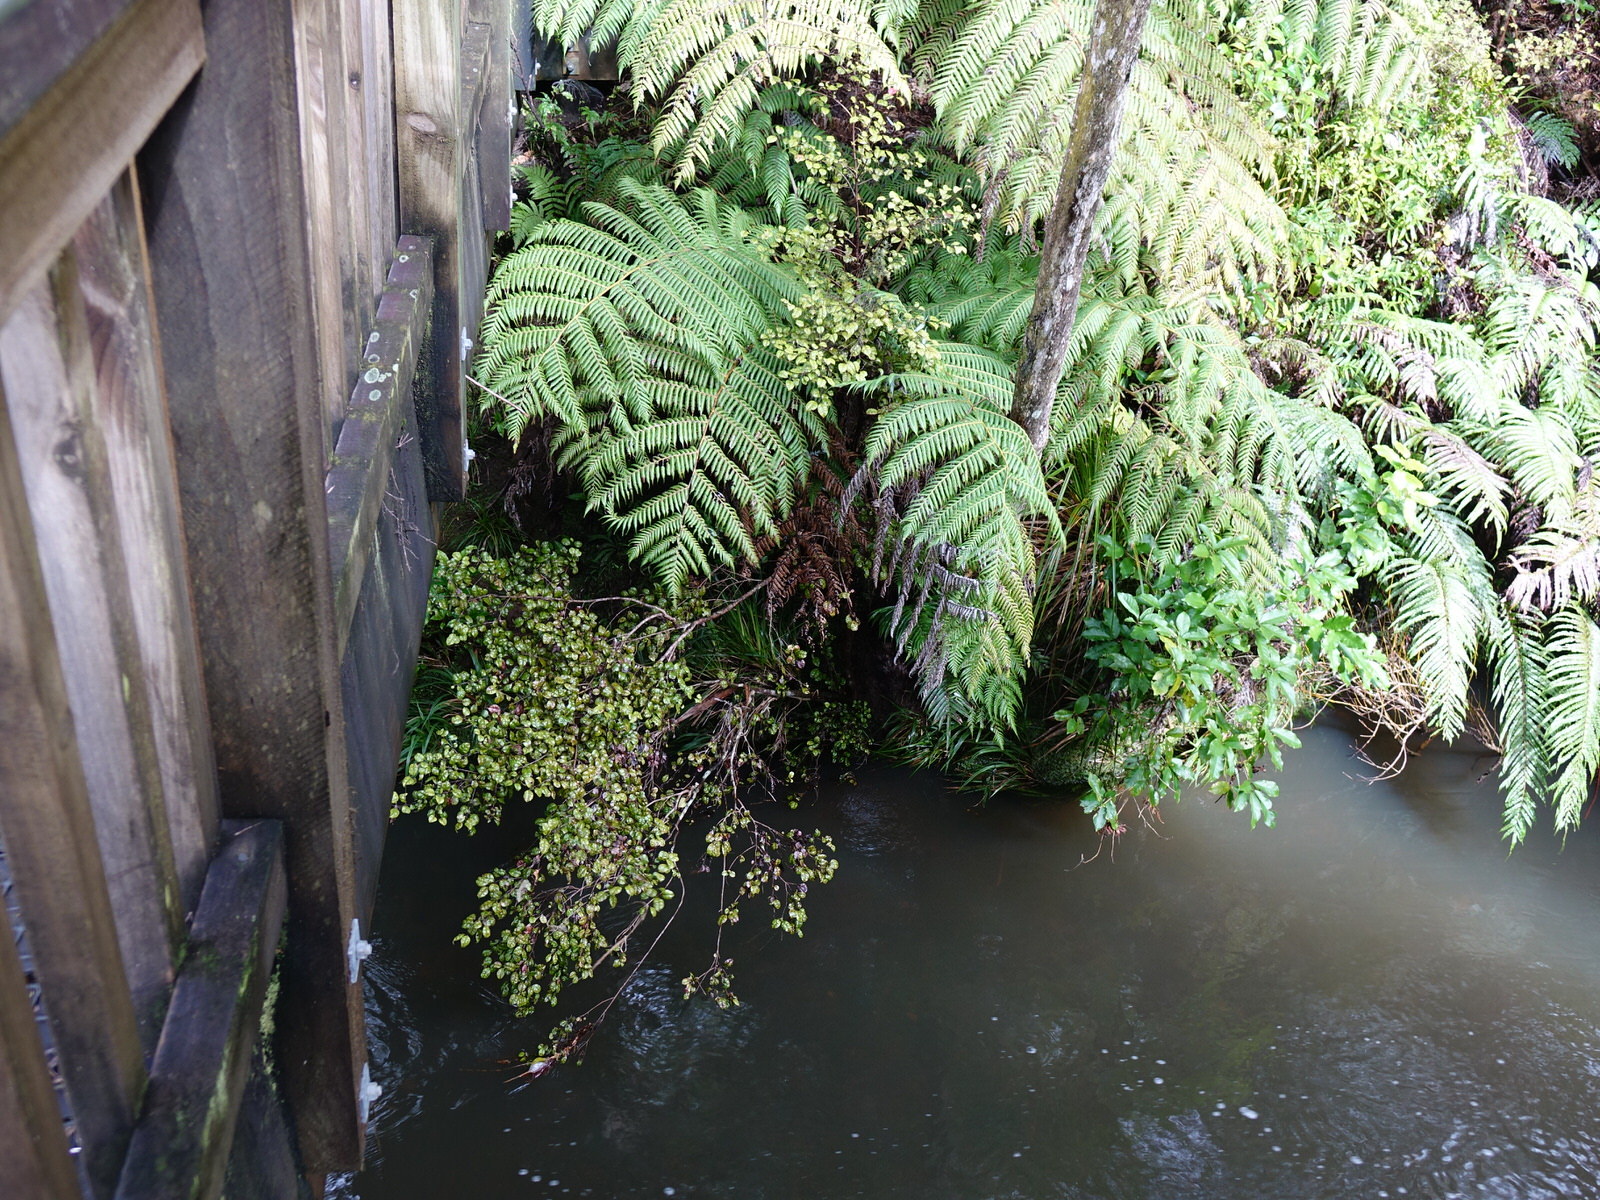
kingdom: Plantae
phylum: Tracheophyta
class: Magnoliopsida
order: Myrtales
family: Myrtaceae
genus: Lophomyrtus
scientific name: Lophomyrtus bullata
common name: Rama rama
